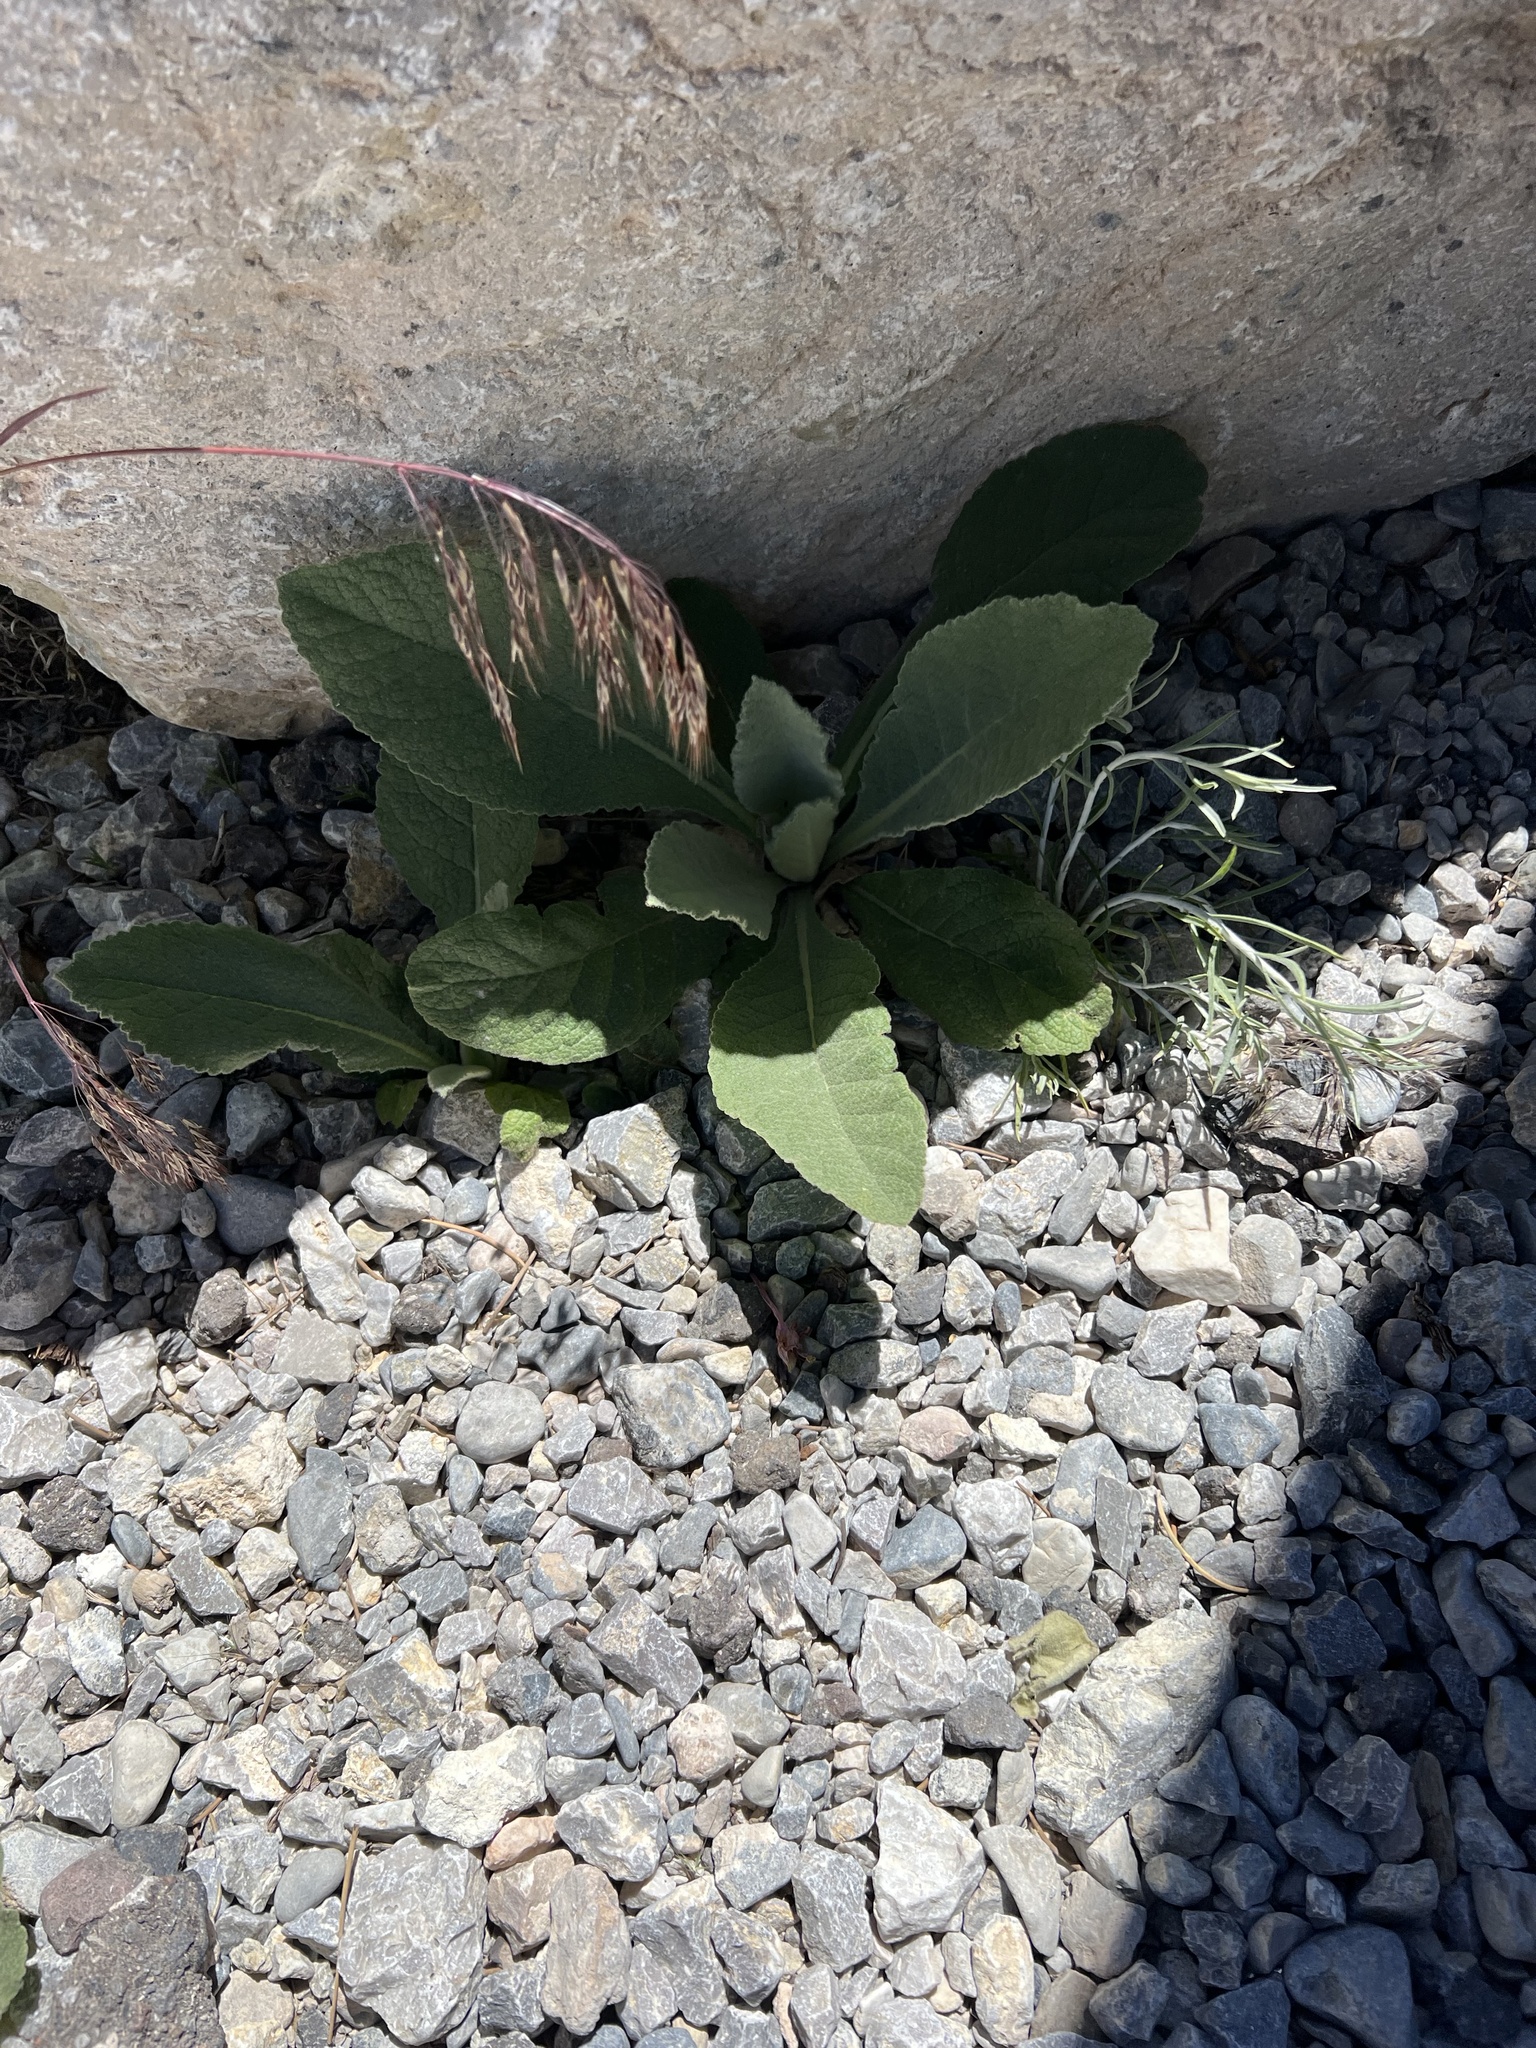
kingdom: Plantae
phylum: Tracheophyta
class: Magnoliopsida
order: Lamiales
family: Scrophulariaceae
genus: Verbascum
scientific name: Verbascum thapsus
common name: Common mullein
